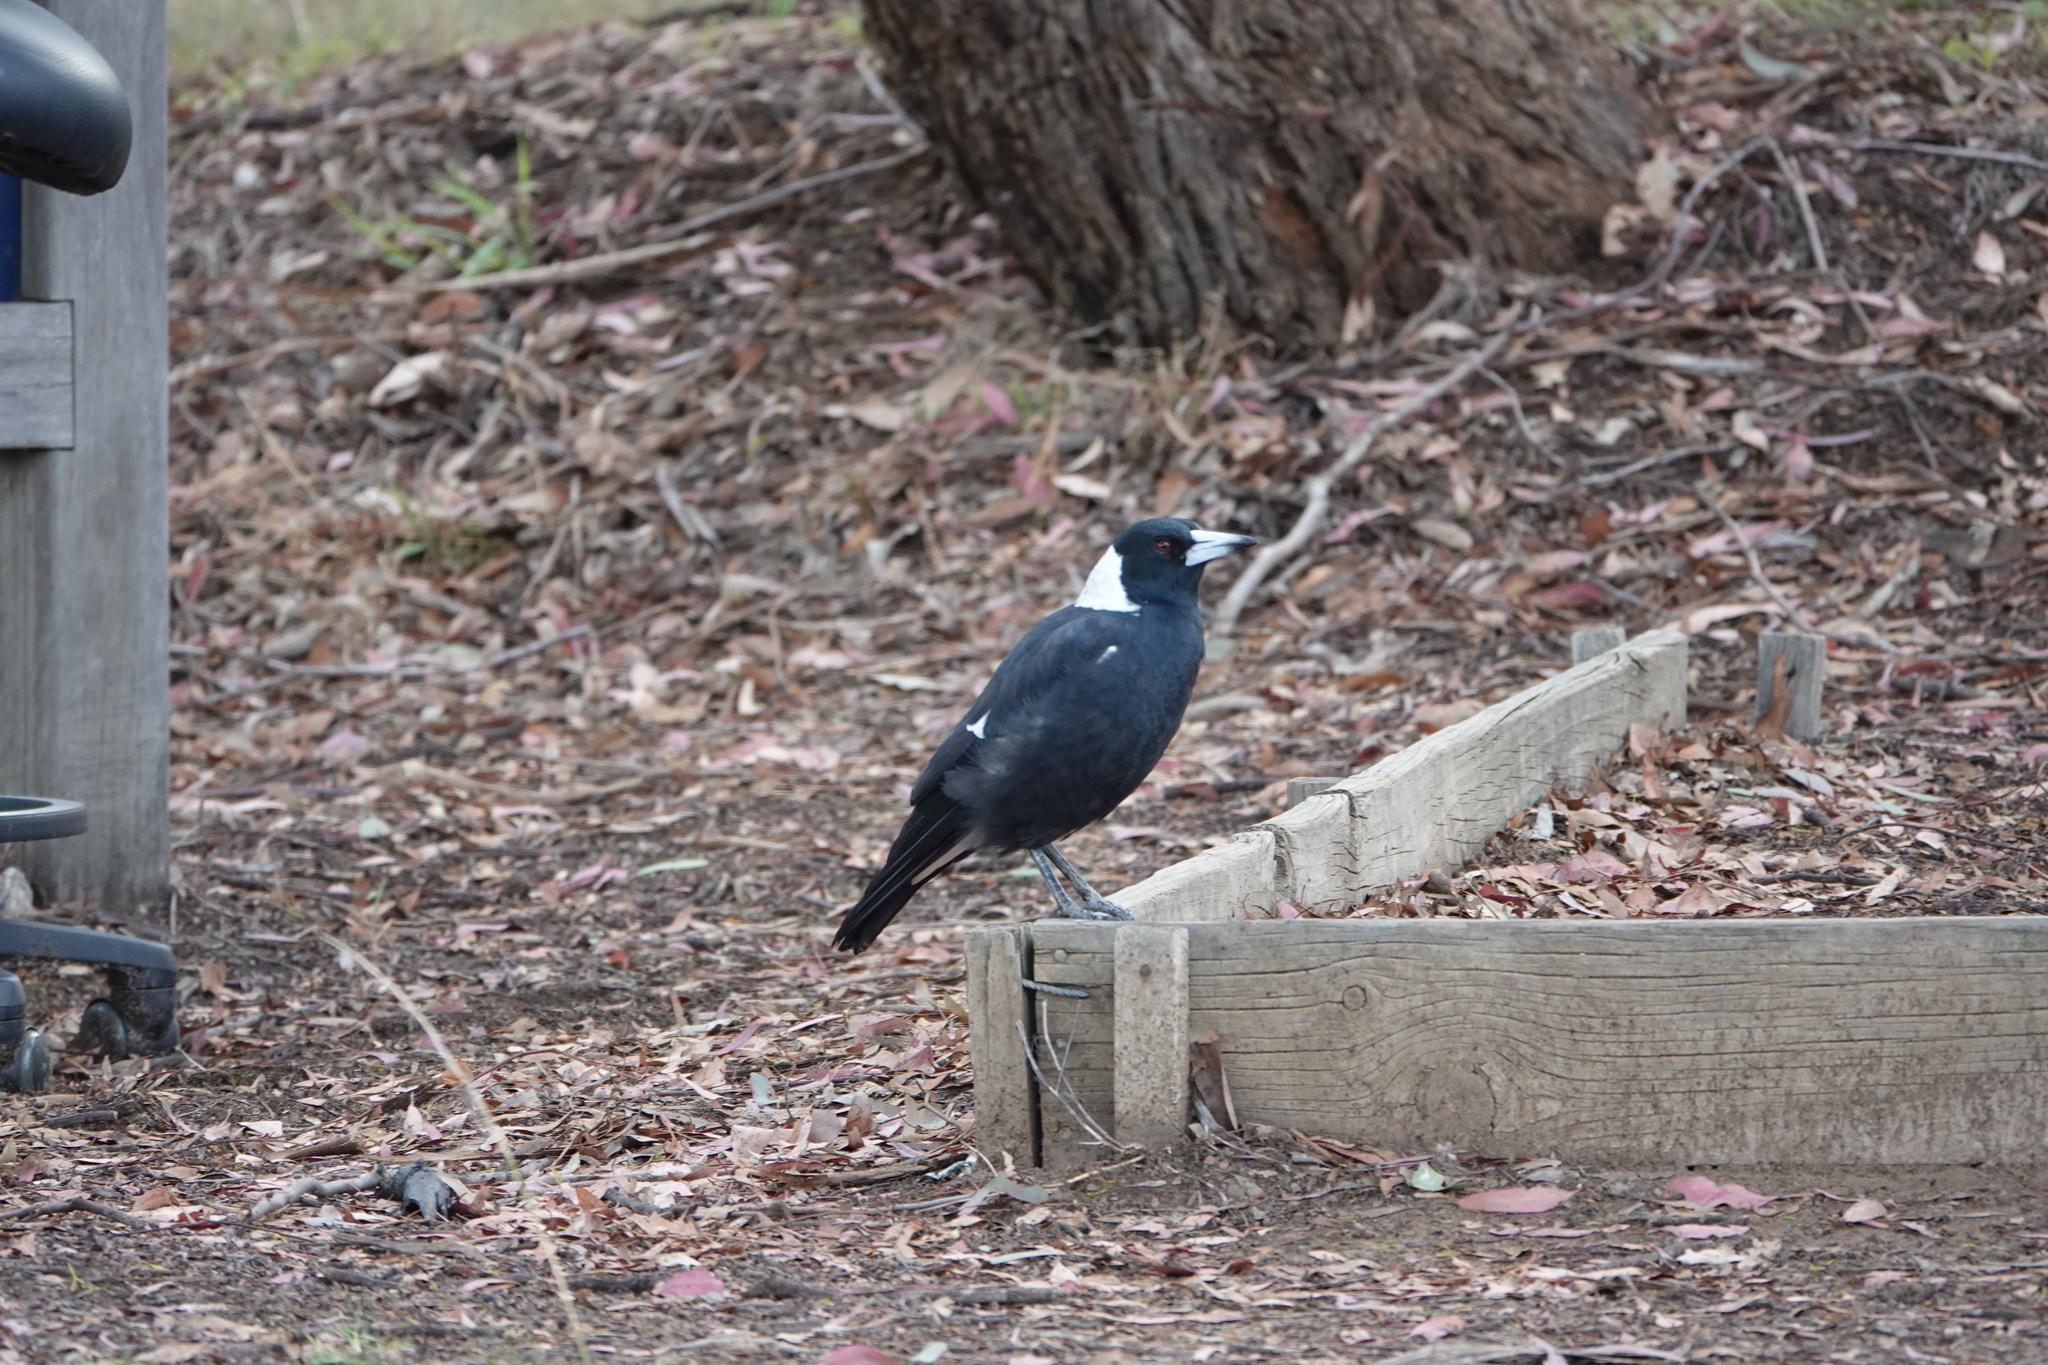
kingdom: Animalia
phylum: Chordata
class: Aves
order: Passeriformes
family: Cracticidae
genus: Gymnorhina
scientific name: Gymnorhina tibicen
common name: Australian magpie
